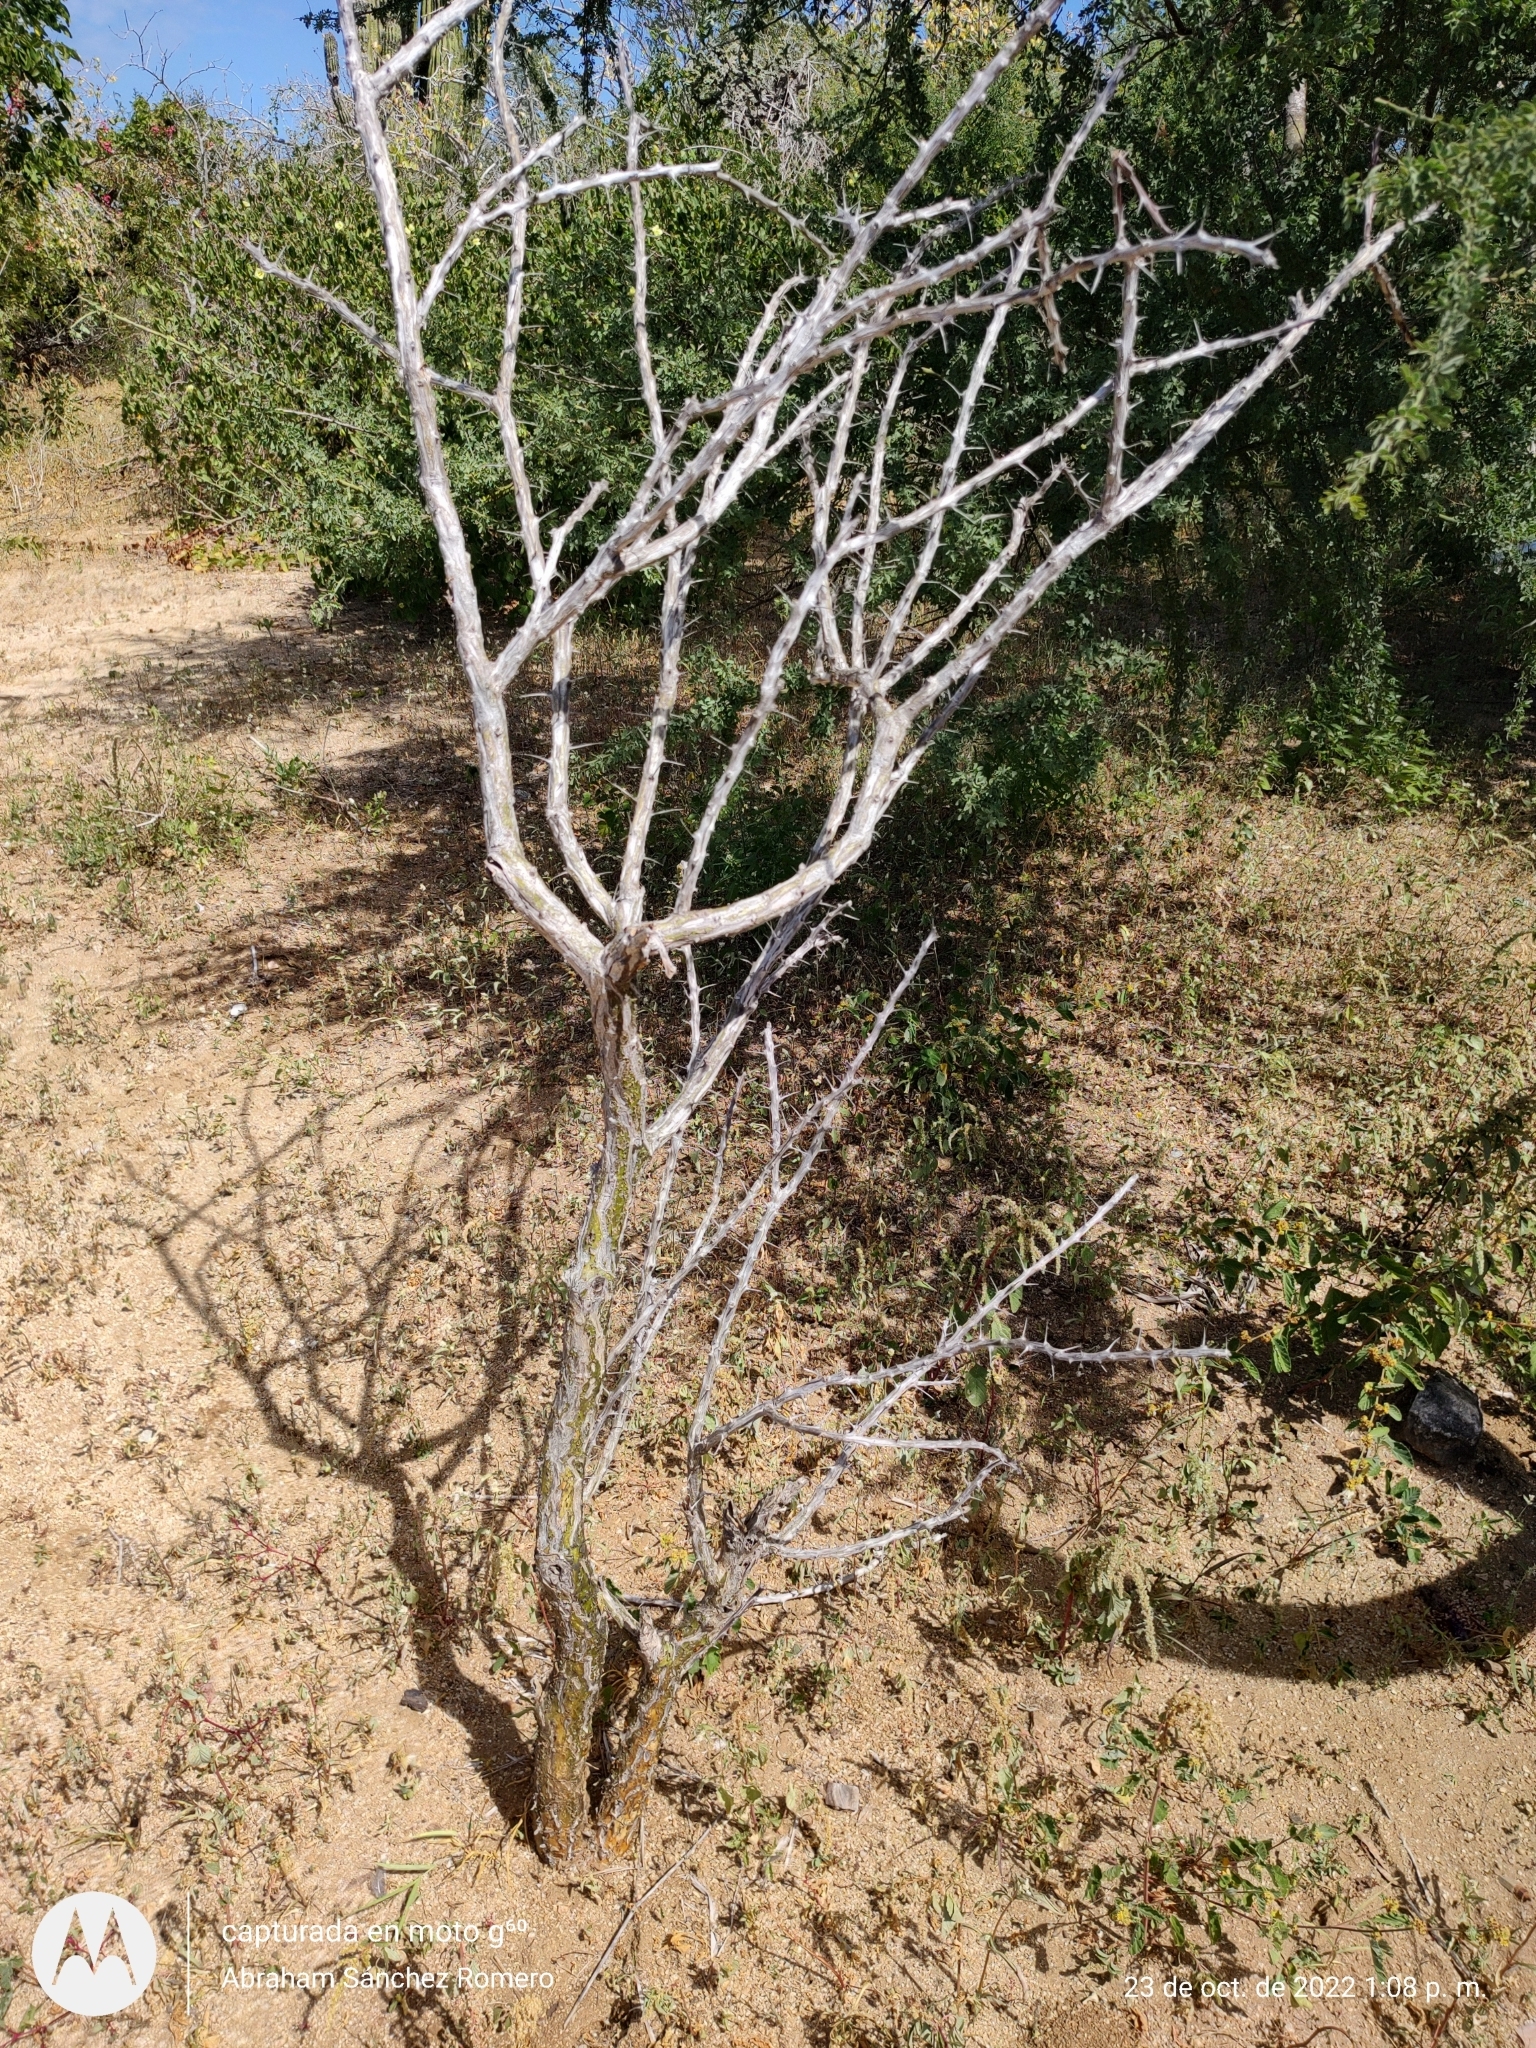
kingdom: Plantae
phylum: Tracheophyta
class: Magnoliopsida
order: Ericales
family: Fouquieriaceae
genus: Fouquieria
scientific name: Fouquieria diguetii
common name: Adam's tree
